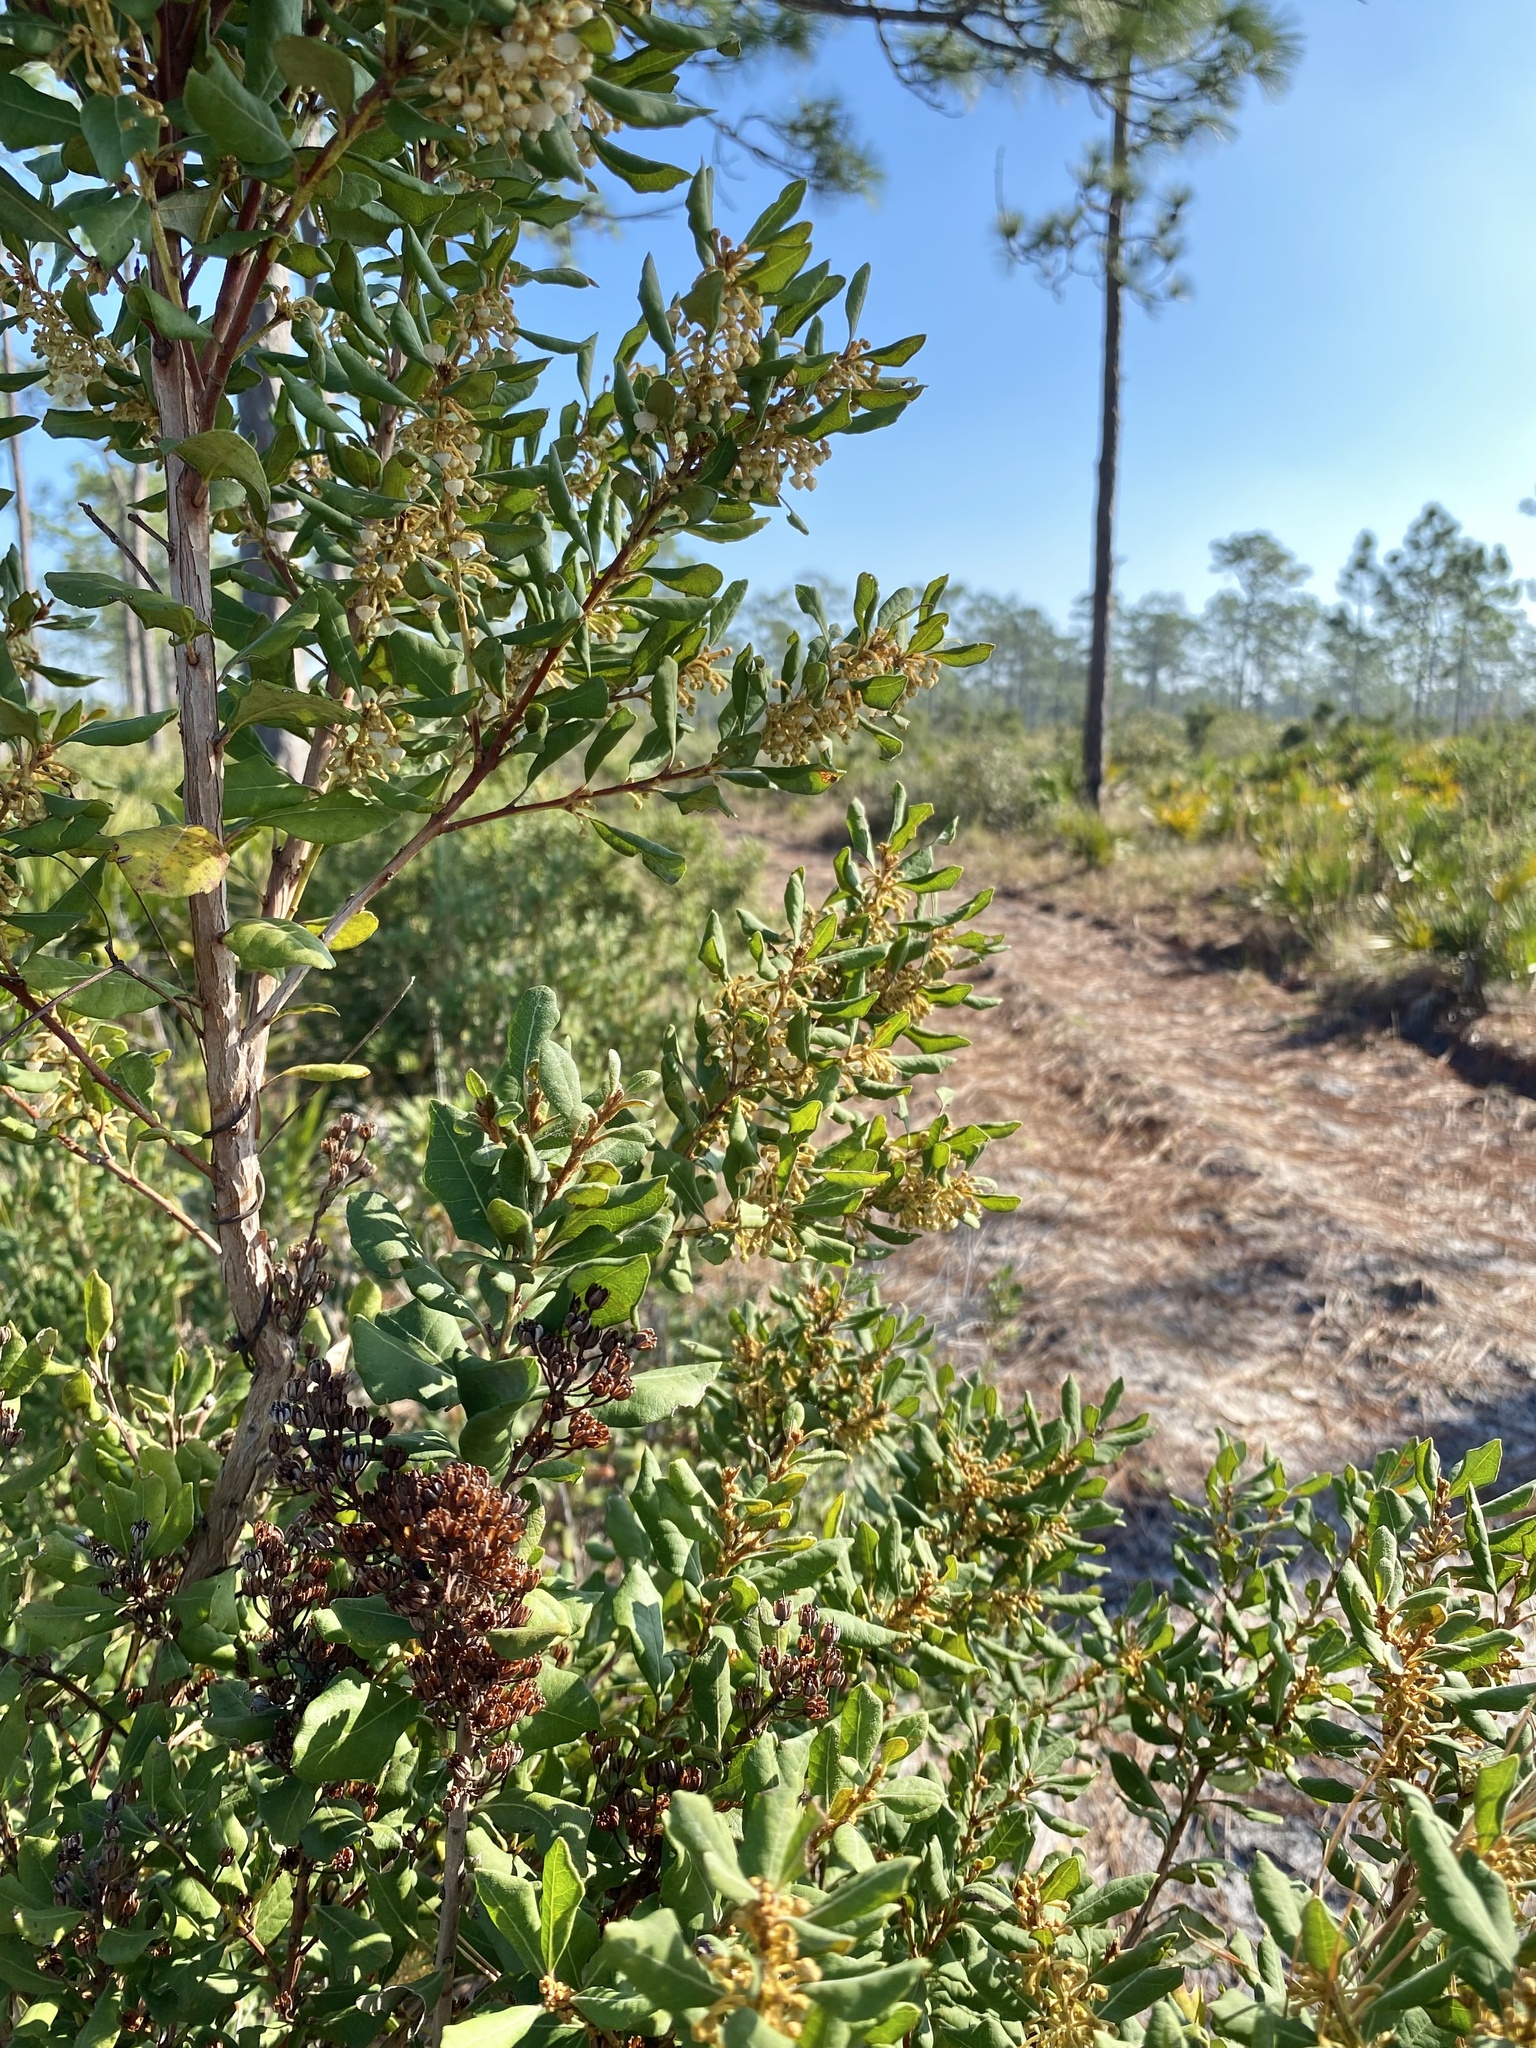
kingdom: Plantae
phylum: Tracheophyta
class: Magnoliopsida
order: Ericales
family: Ericaceae
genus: Lyonia
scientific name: Lyonia ferruginea
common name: Rusty lyonia
